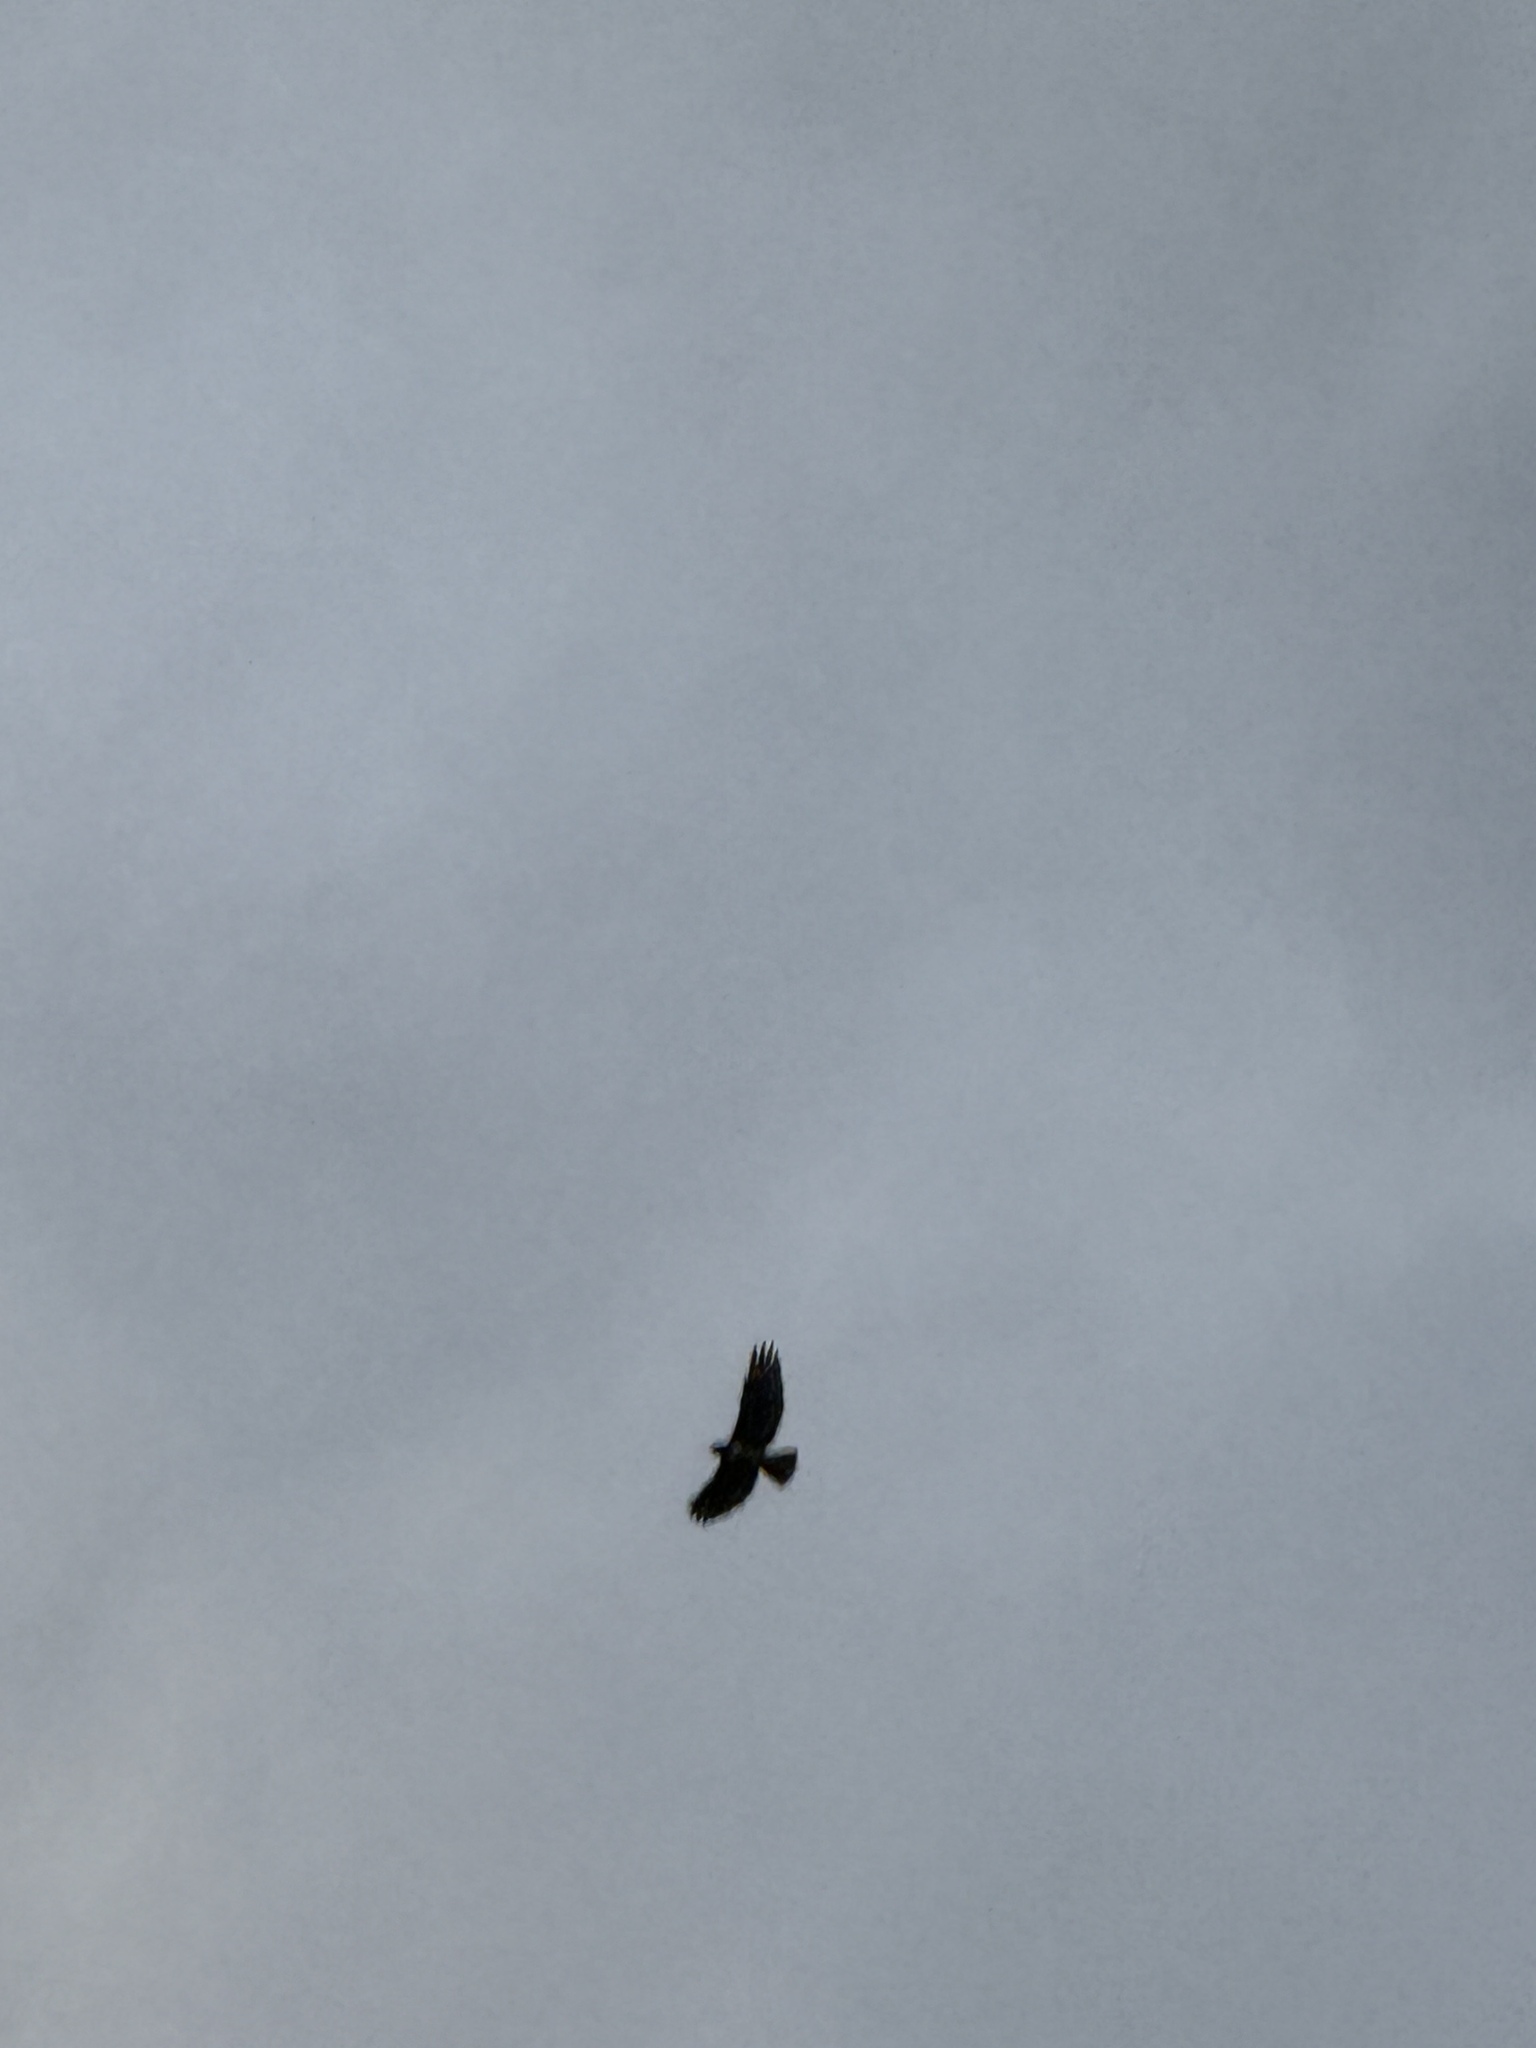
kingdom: Animalia
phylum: Chordata
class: Aves
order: Accipitriformes
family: Accipitridae
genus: Buteo
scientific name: Buteo jamaicensis
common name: Red-tailed hawk
